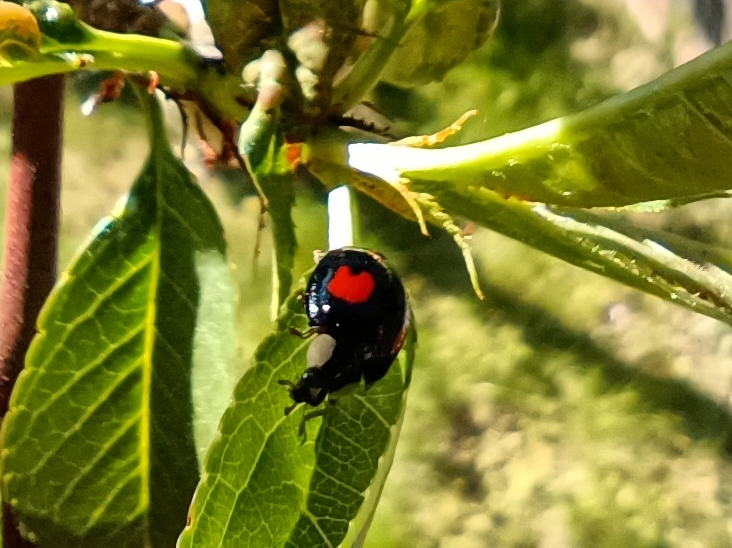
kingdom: Animalia
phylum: Arthropoda
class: Insecta
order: Coleoptera
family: Coccinellidae
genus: Harmonia
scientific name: Harmonia axyridis
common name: Harlequin ladybird
